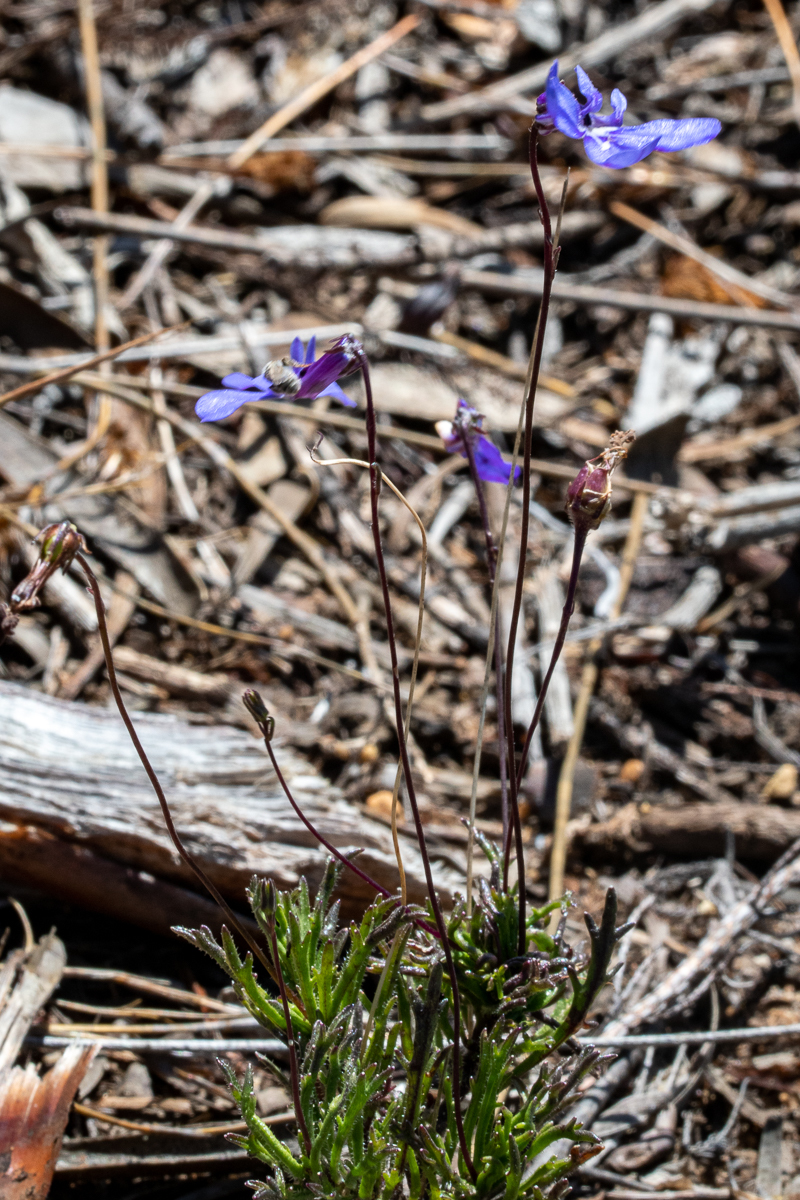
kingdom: Plantae
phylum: Tracheophyta
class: Magnoliopsida
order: Asterales
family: Campanulaceae
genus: Lobelia
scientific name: Lobelia chamaepitys
